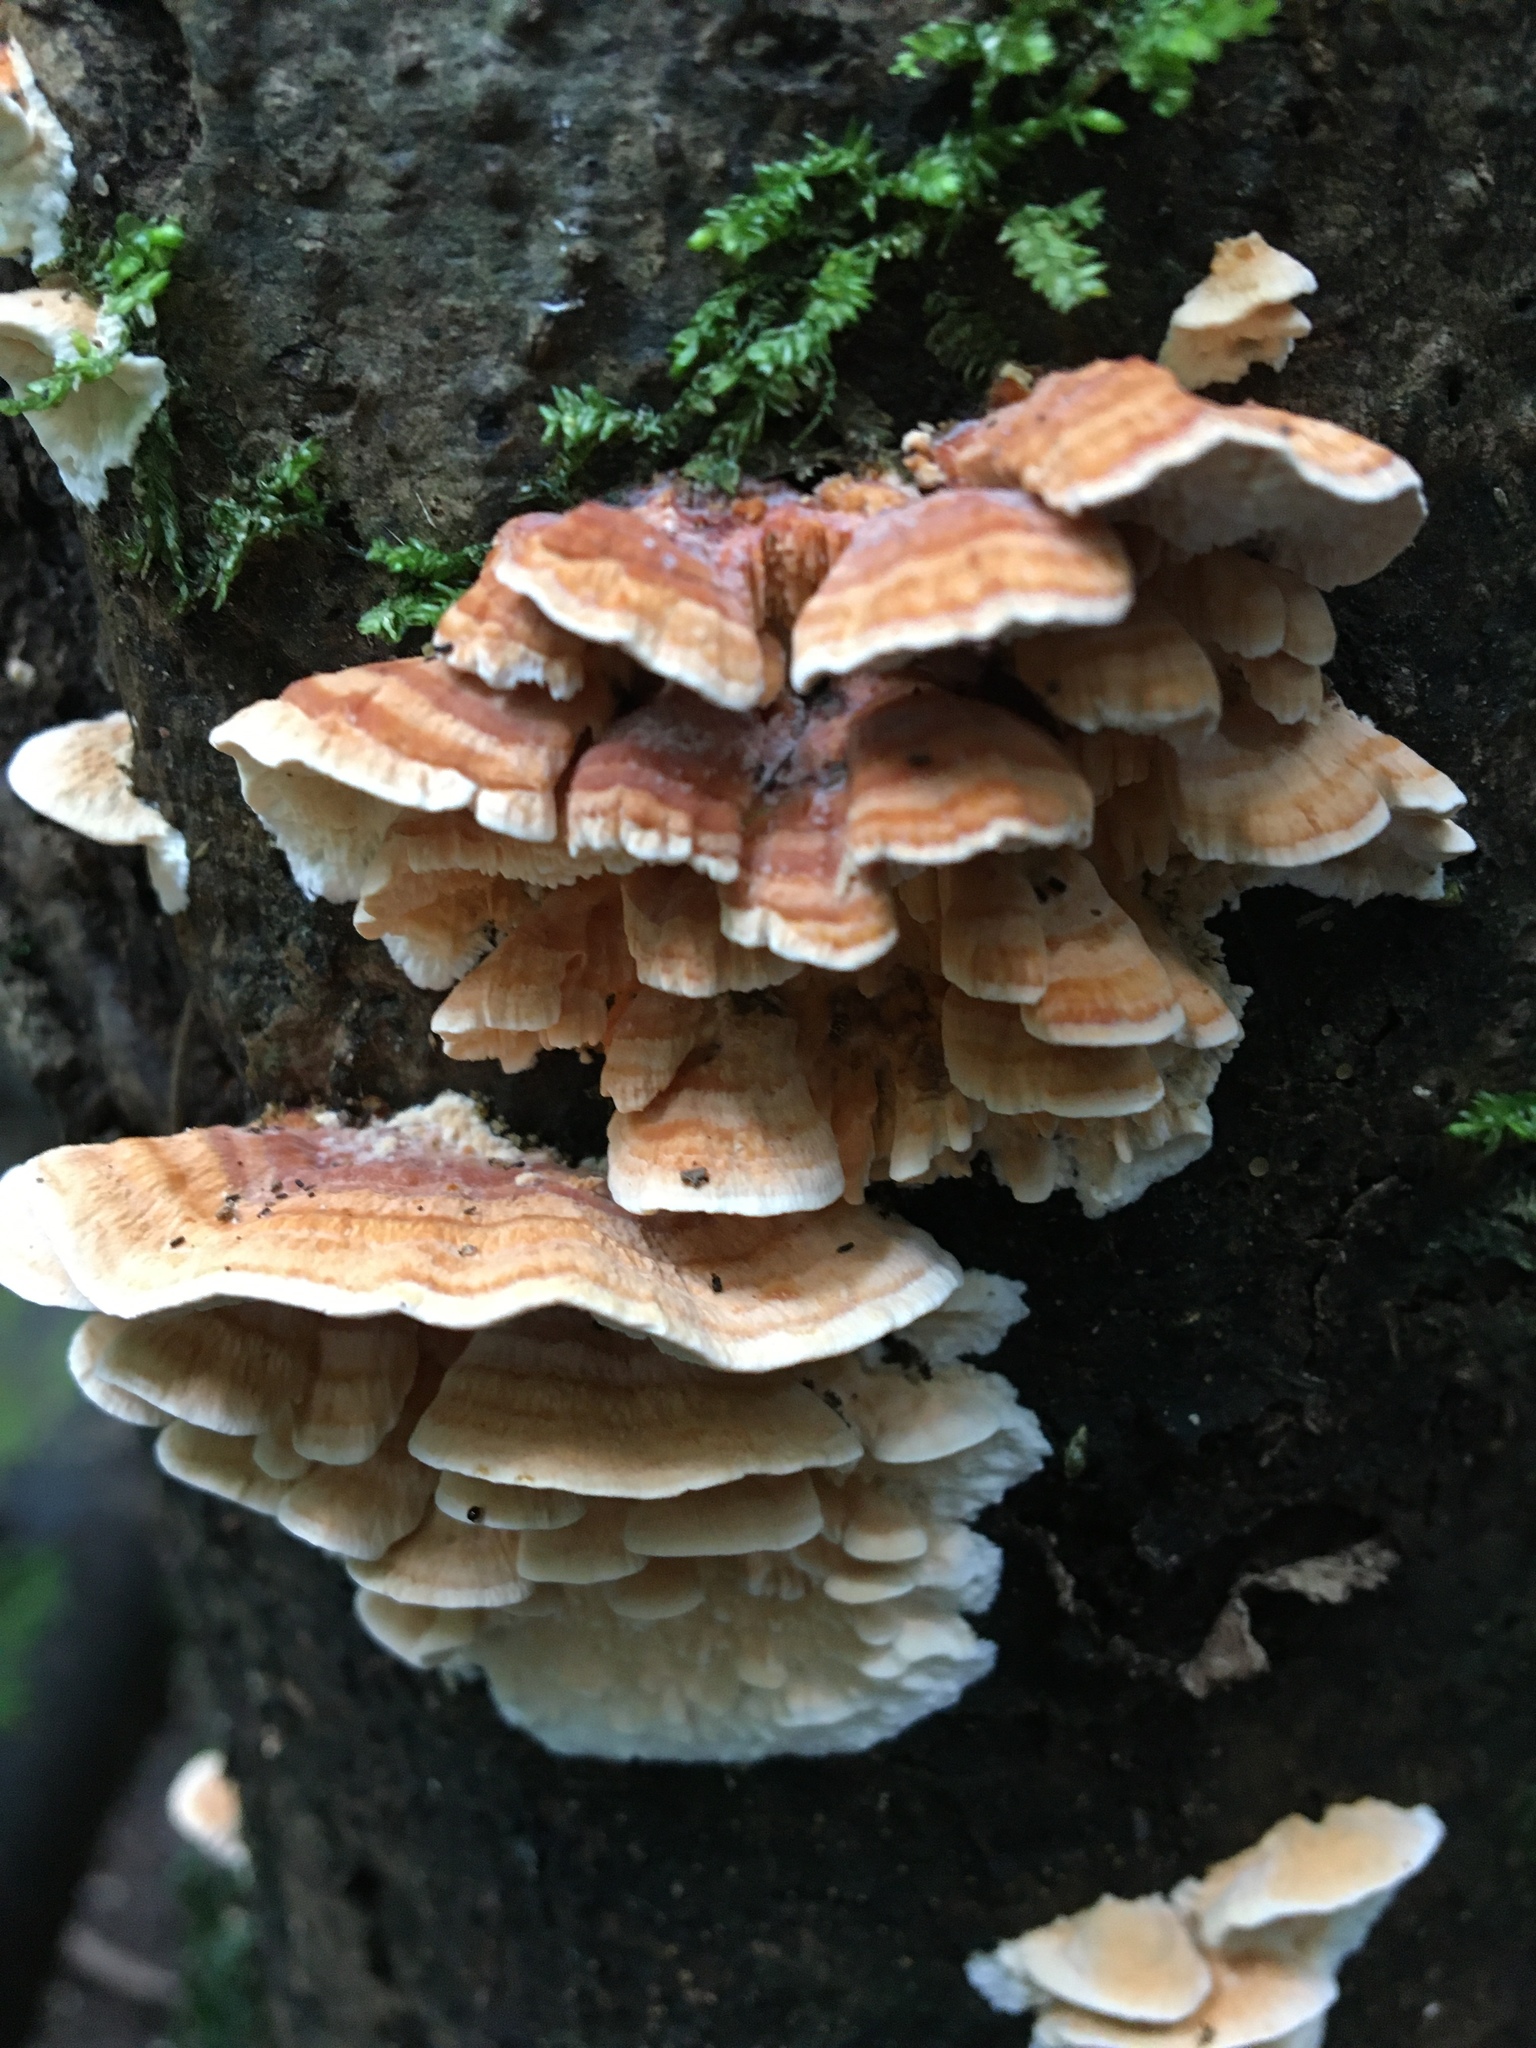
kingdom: Fungi
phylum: Basidiomycota
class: Agaricomycetes
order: Polyporales
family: Cerrenaceae
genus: Cerrena
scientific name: Cerrena zonata
